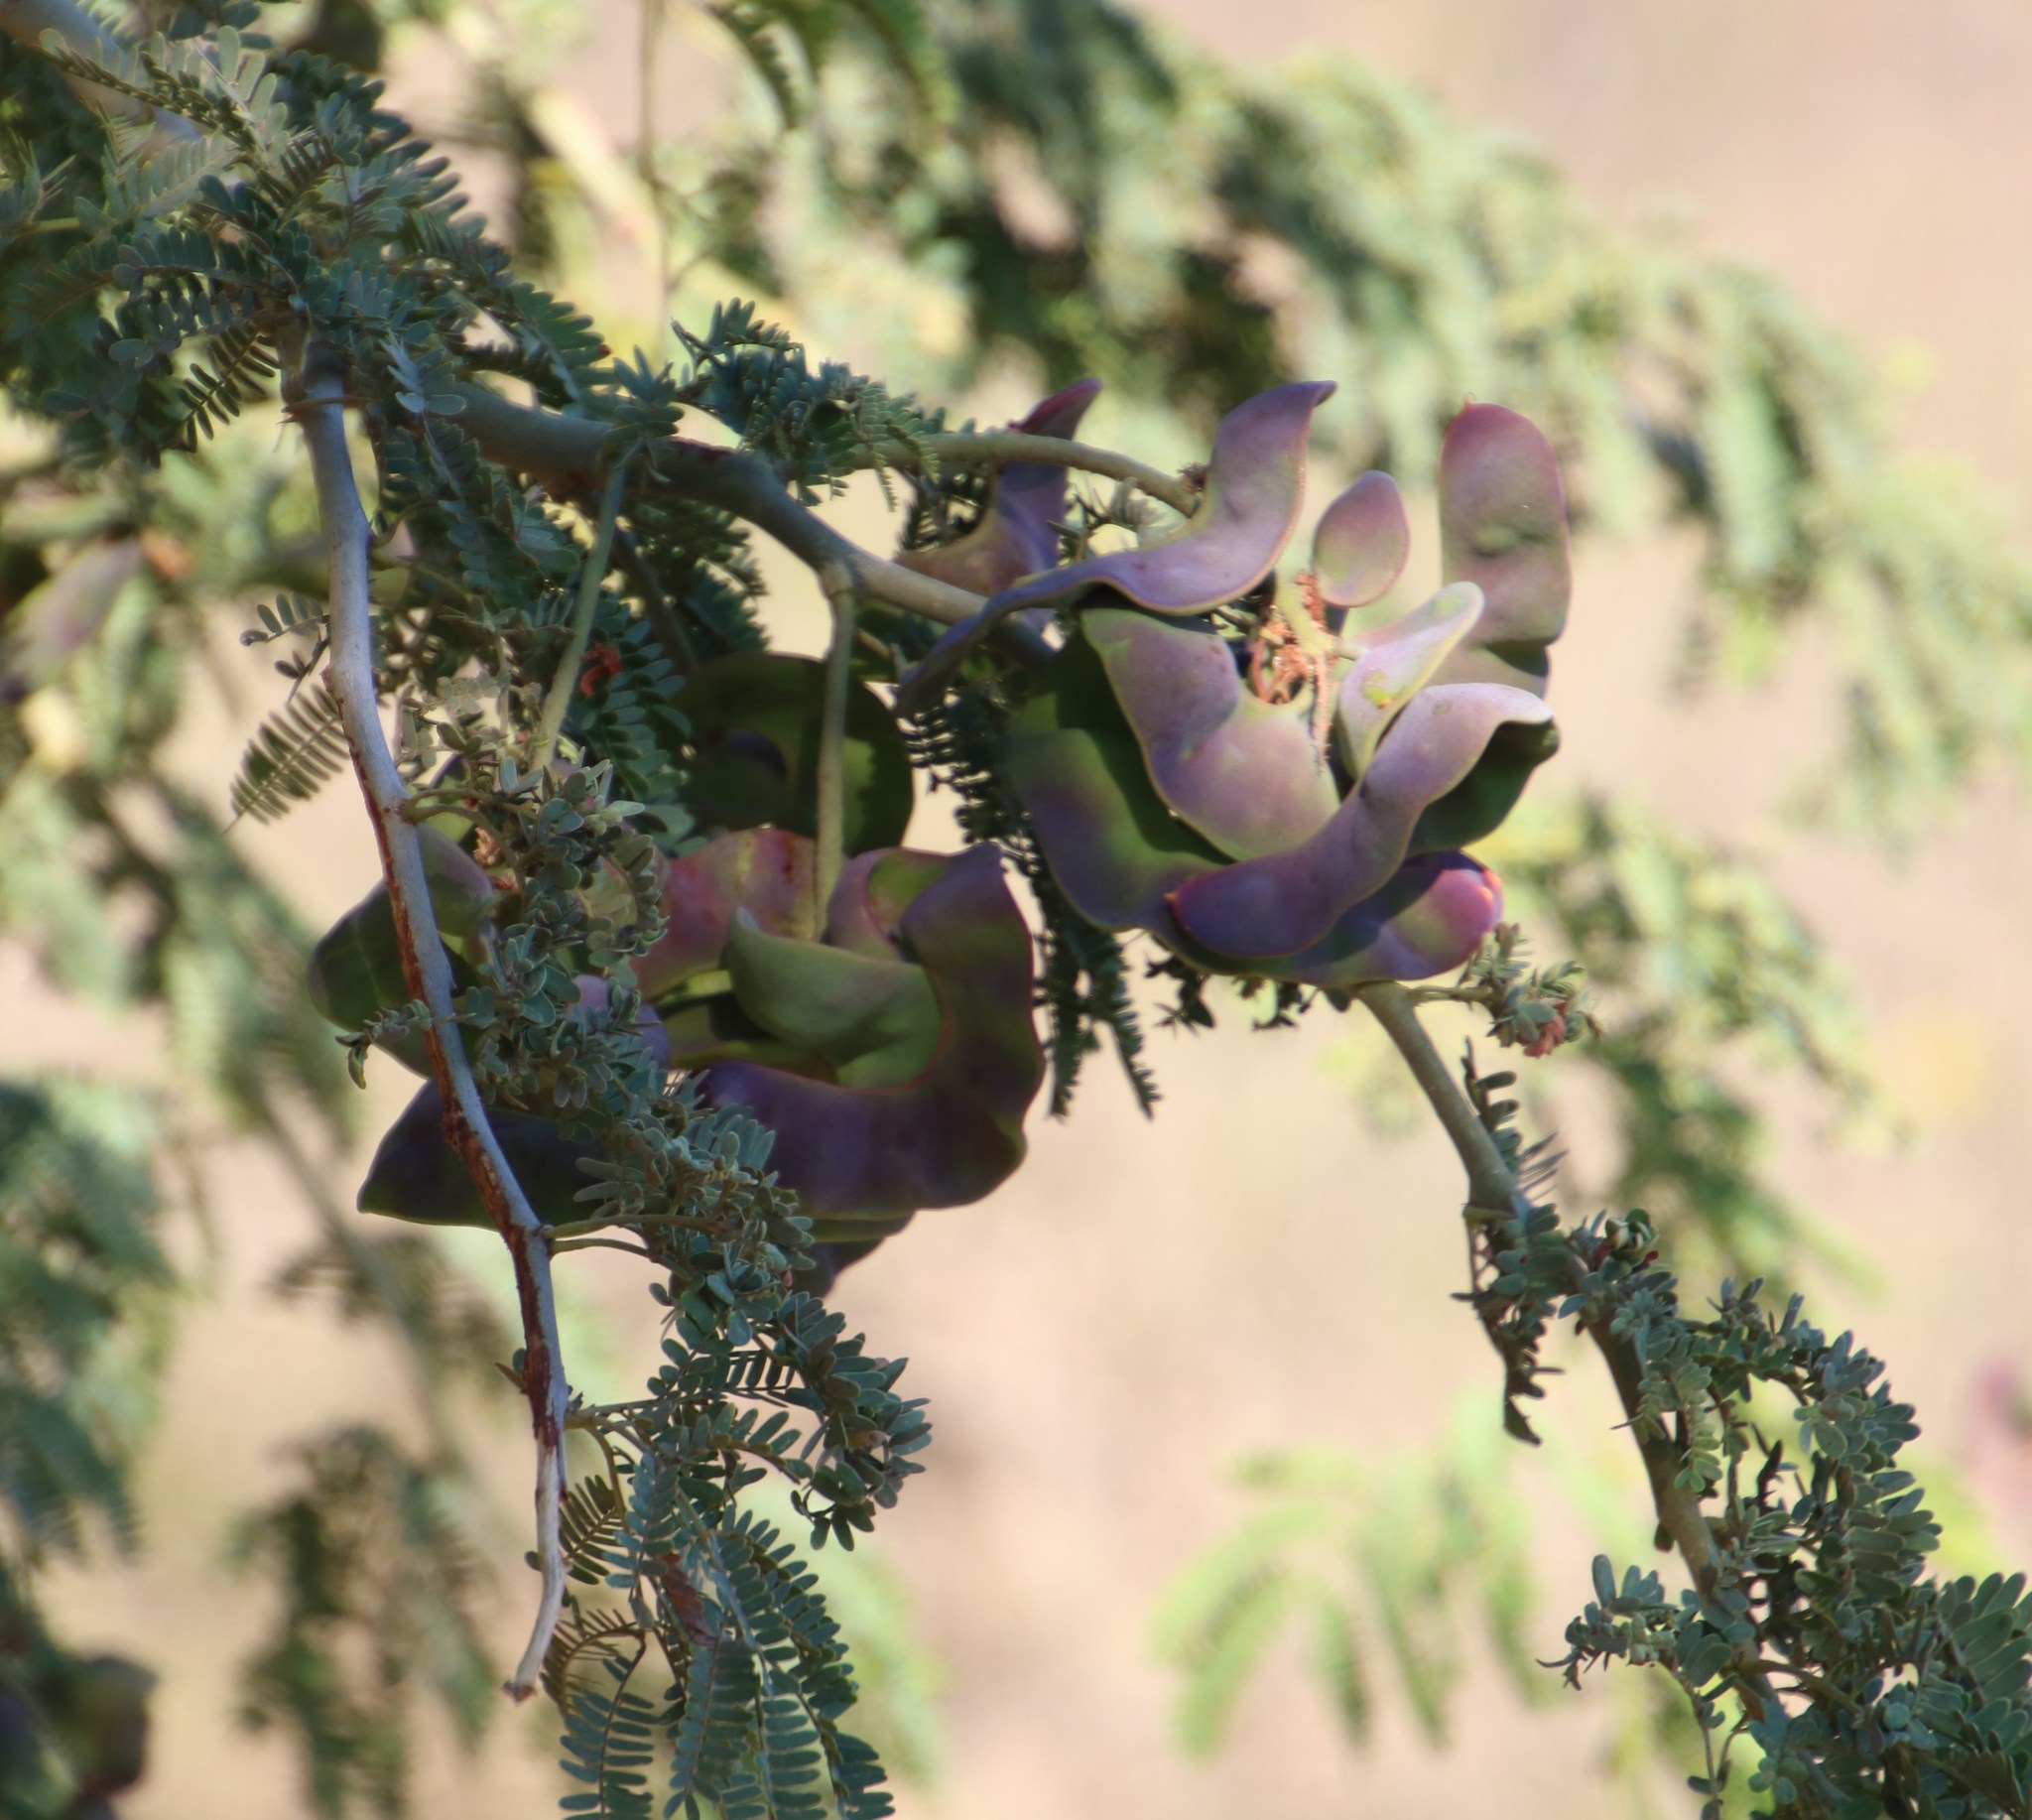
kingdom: Plantae
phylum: Tracheophyta
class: Magnoliopsida
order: Fabales
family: Fabaceae
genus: Faidherbia
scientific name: Faidherbia albida
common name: Anatree
